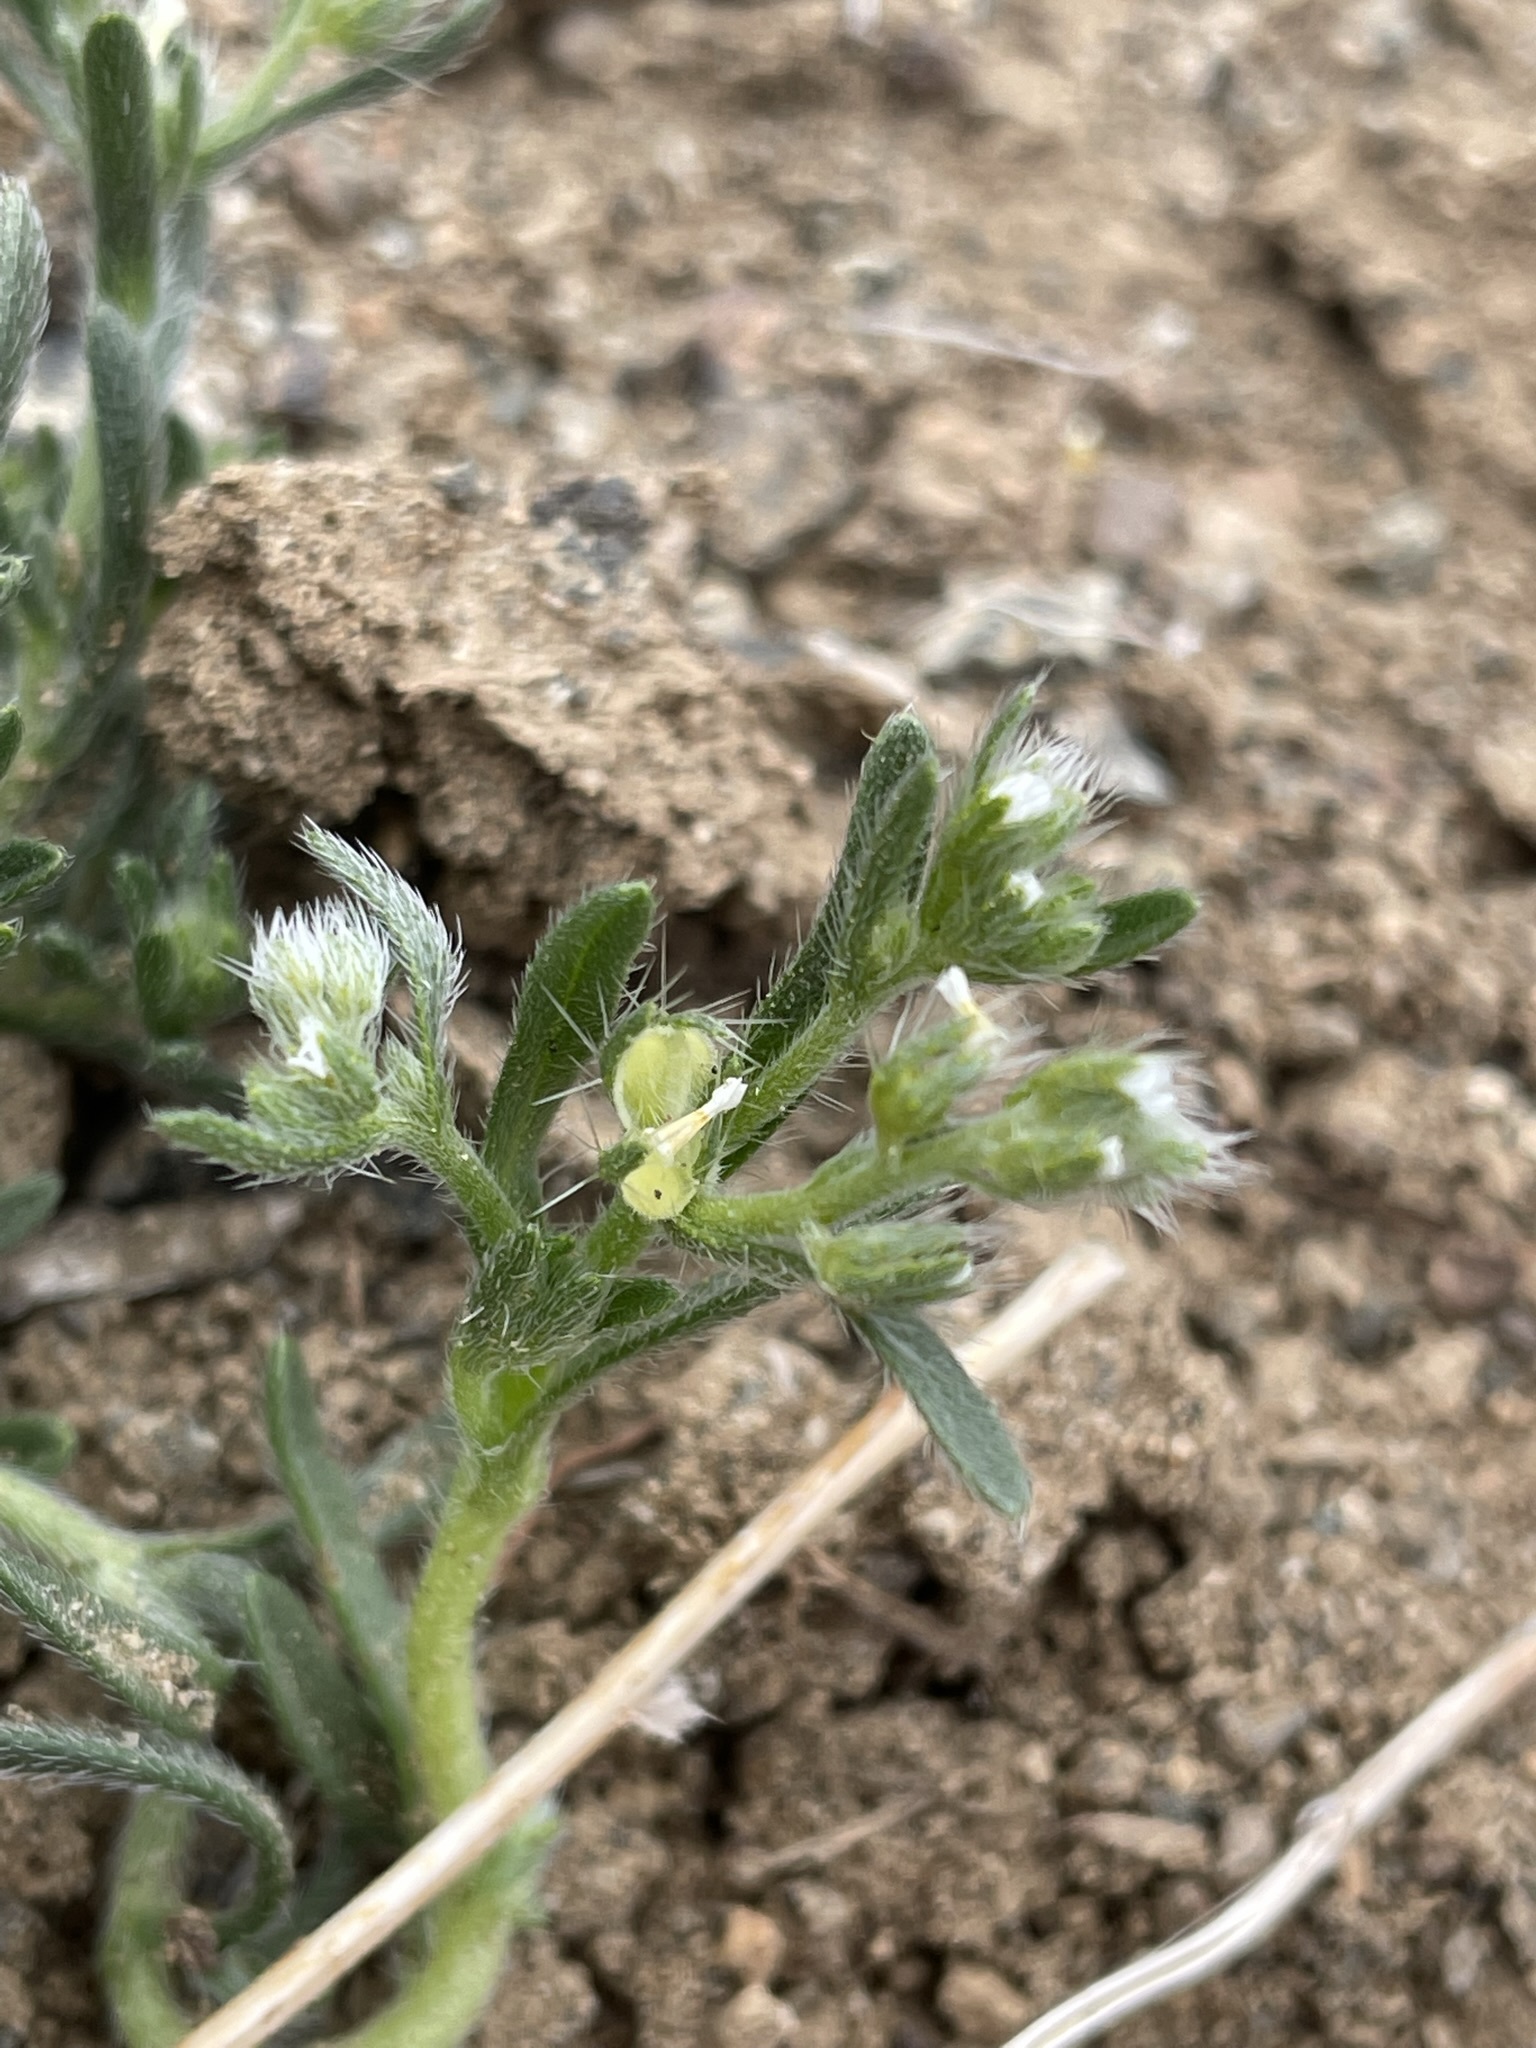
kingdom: Plantae
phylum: Tracheophyta
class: Magnoliopsida
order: Boraginales
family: Boraginaceae
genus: Pectocarya
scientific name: Pectocarya setosa
